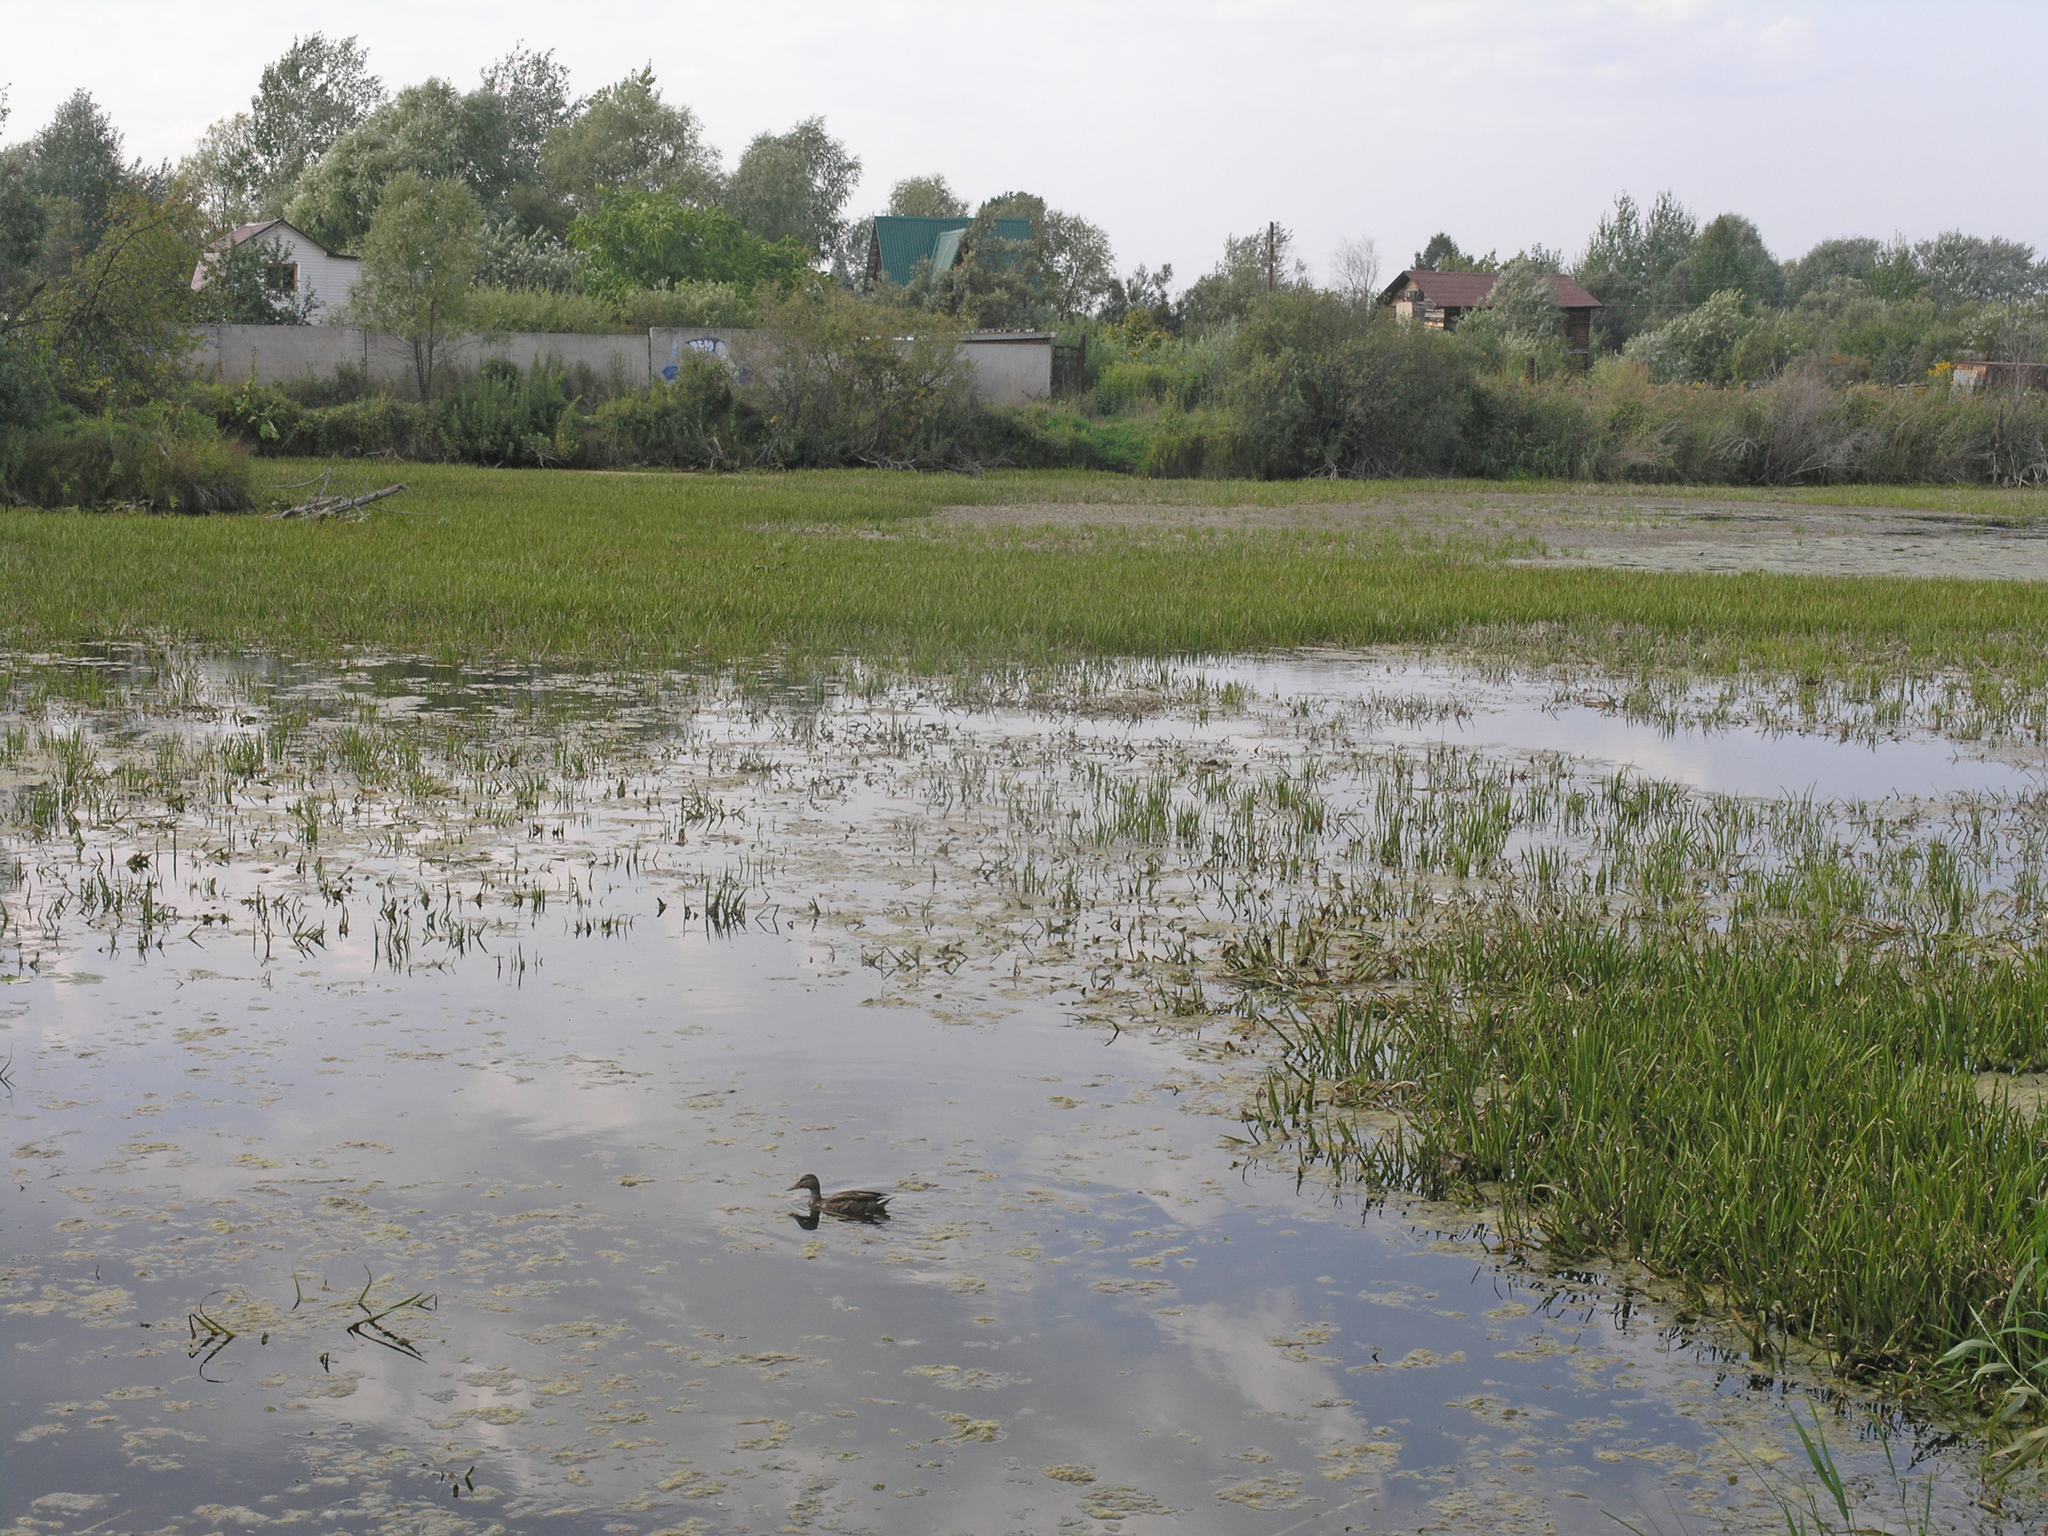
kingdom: Plantae
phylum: Tracheophyta
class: Liliopsida
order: Alismatales
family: Hydrocharitaceae
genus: Stratiotes
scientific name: Stratiotes aloides
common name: Water-soldier
